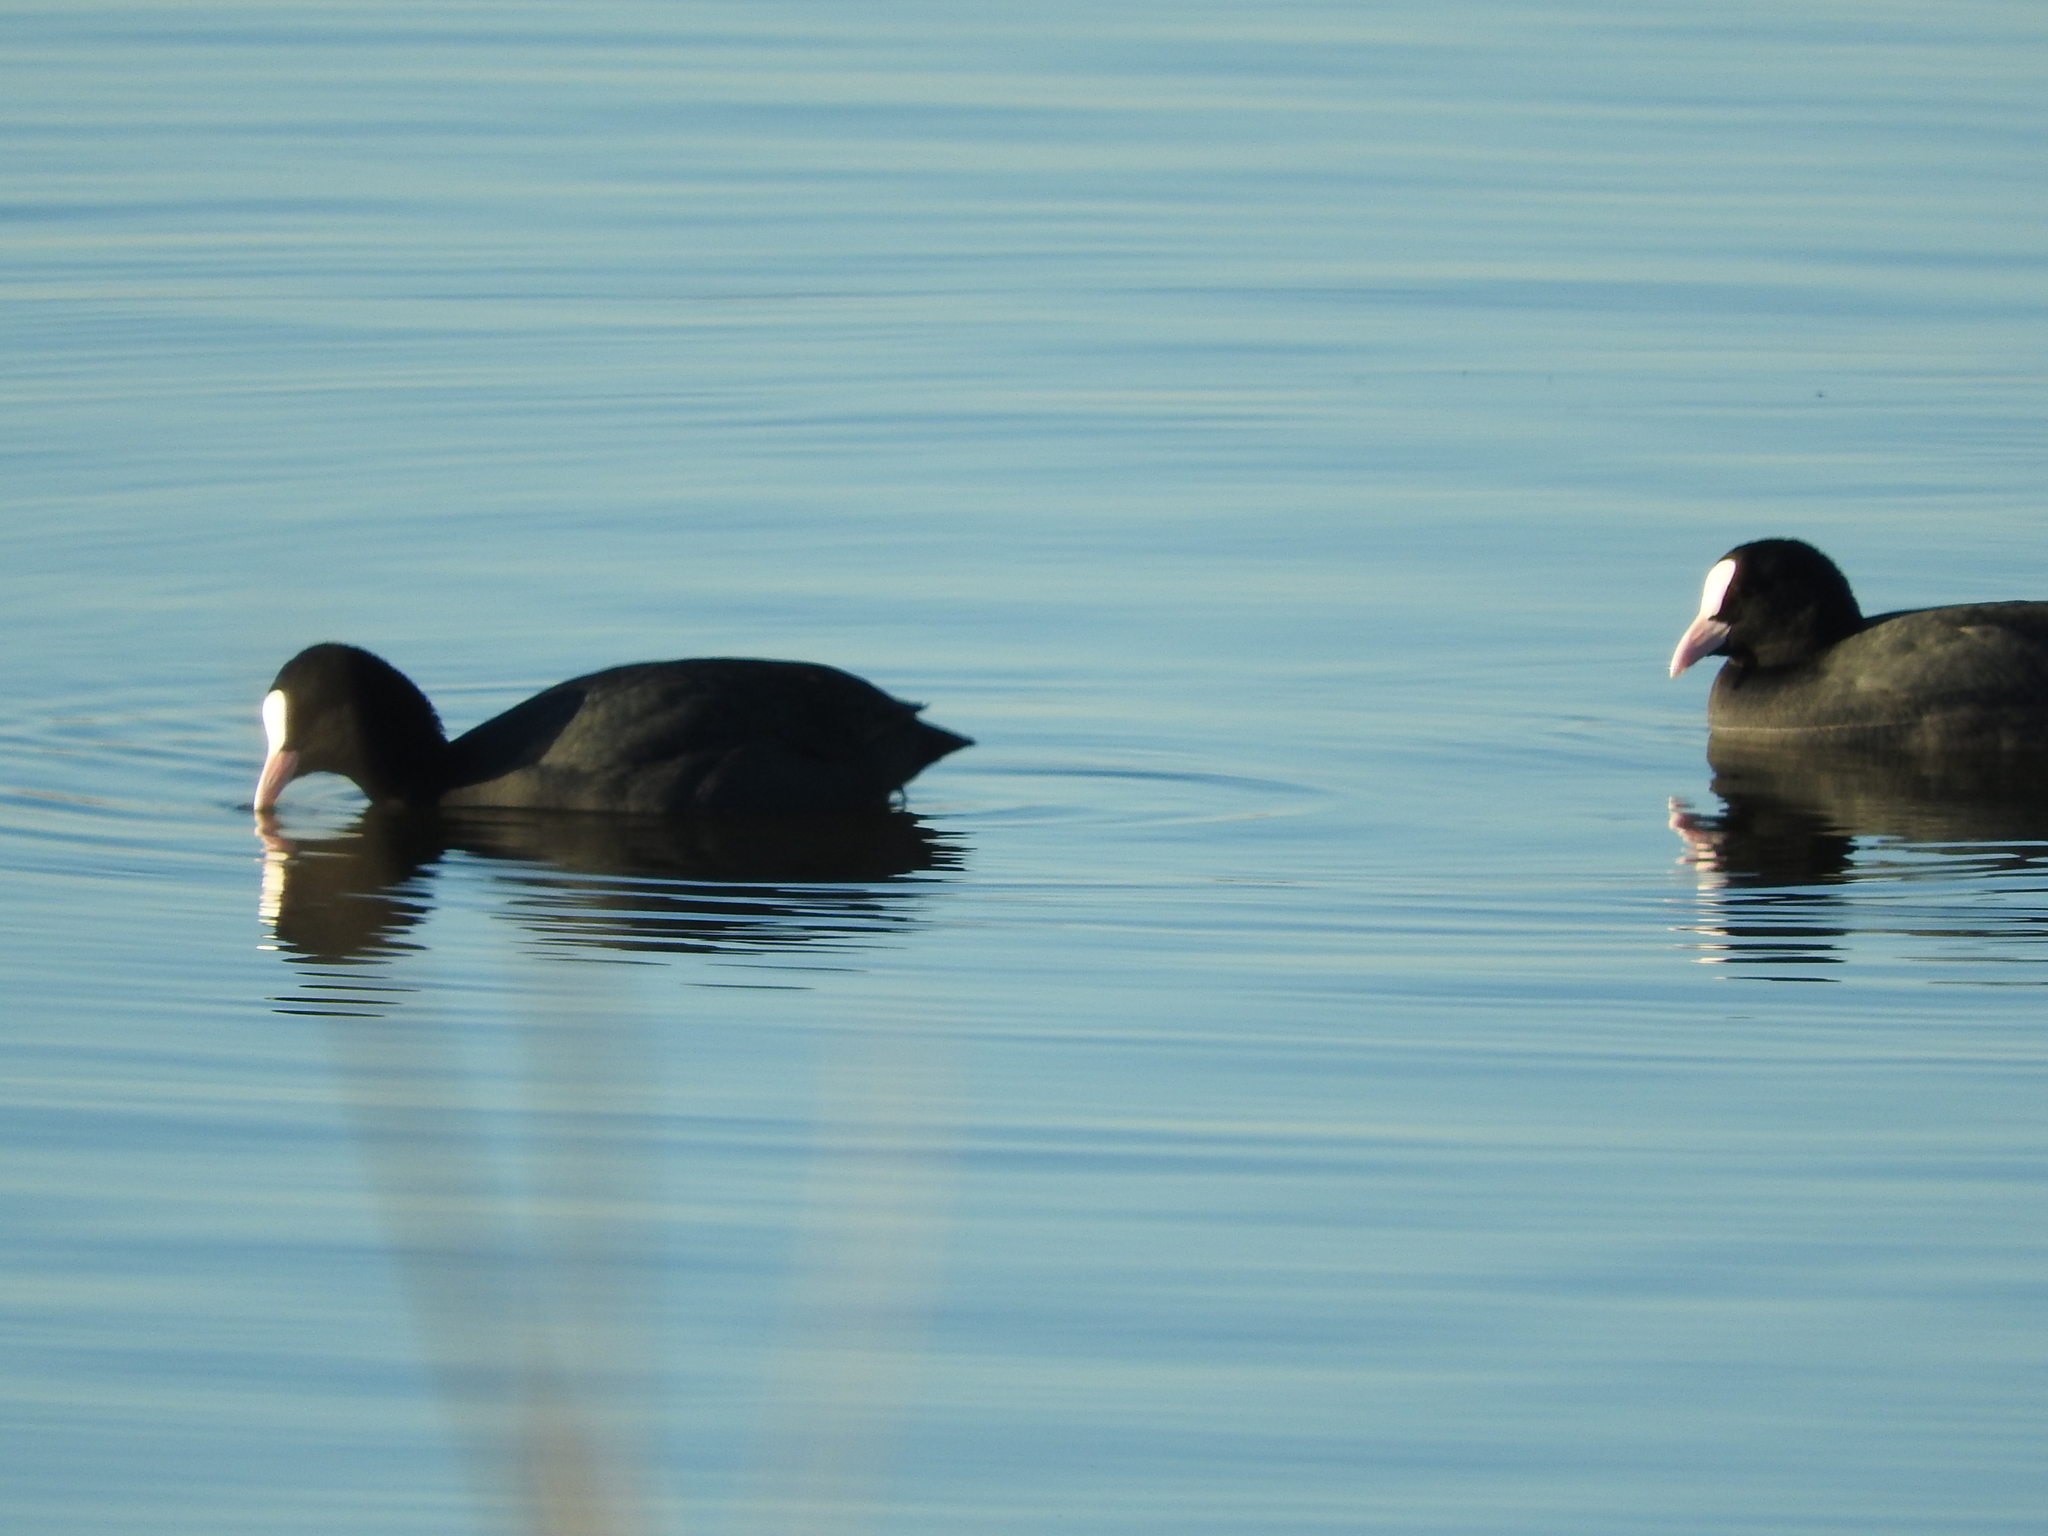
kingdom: Animalia
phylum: Chordata
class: Aves
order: Gruiformes
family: Rallidae
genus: Fulica
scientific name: Fulica atra
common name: Eurasian coot
